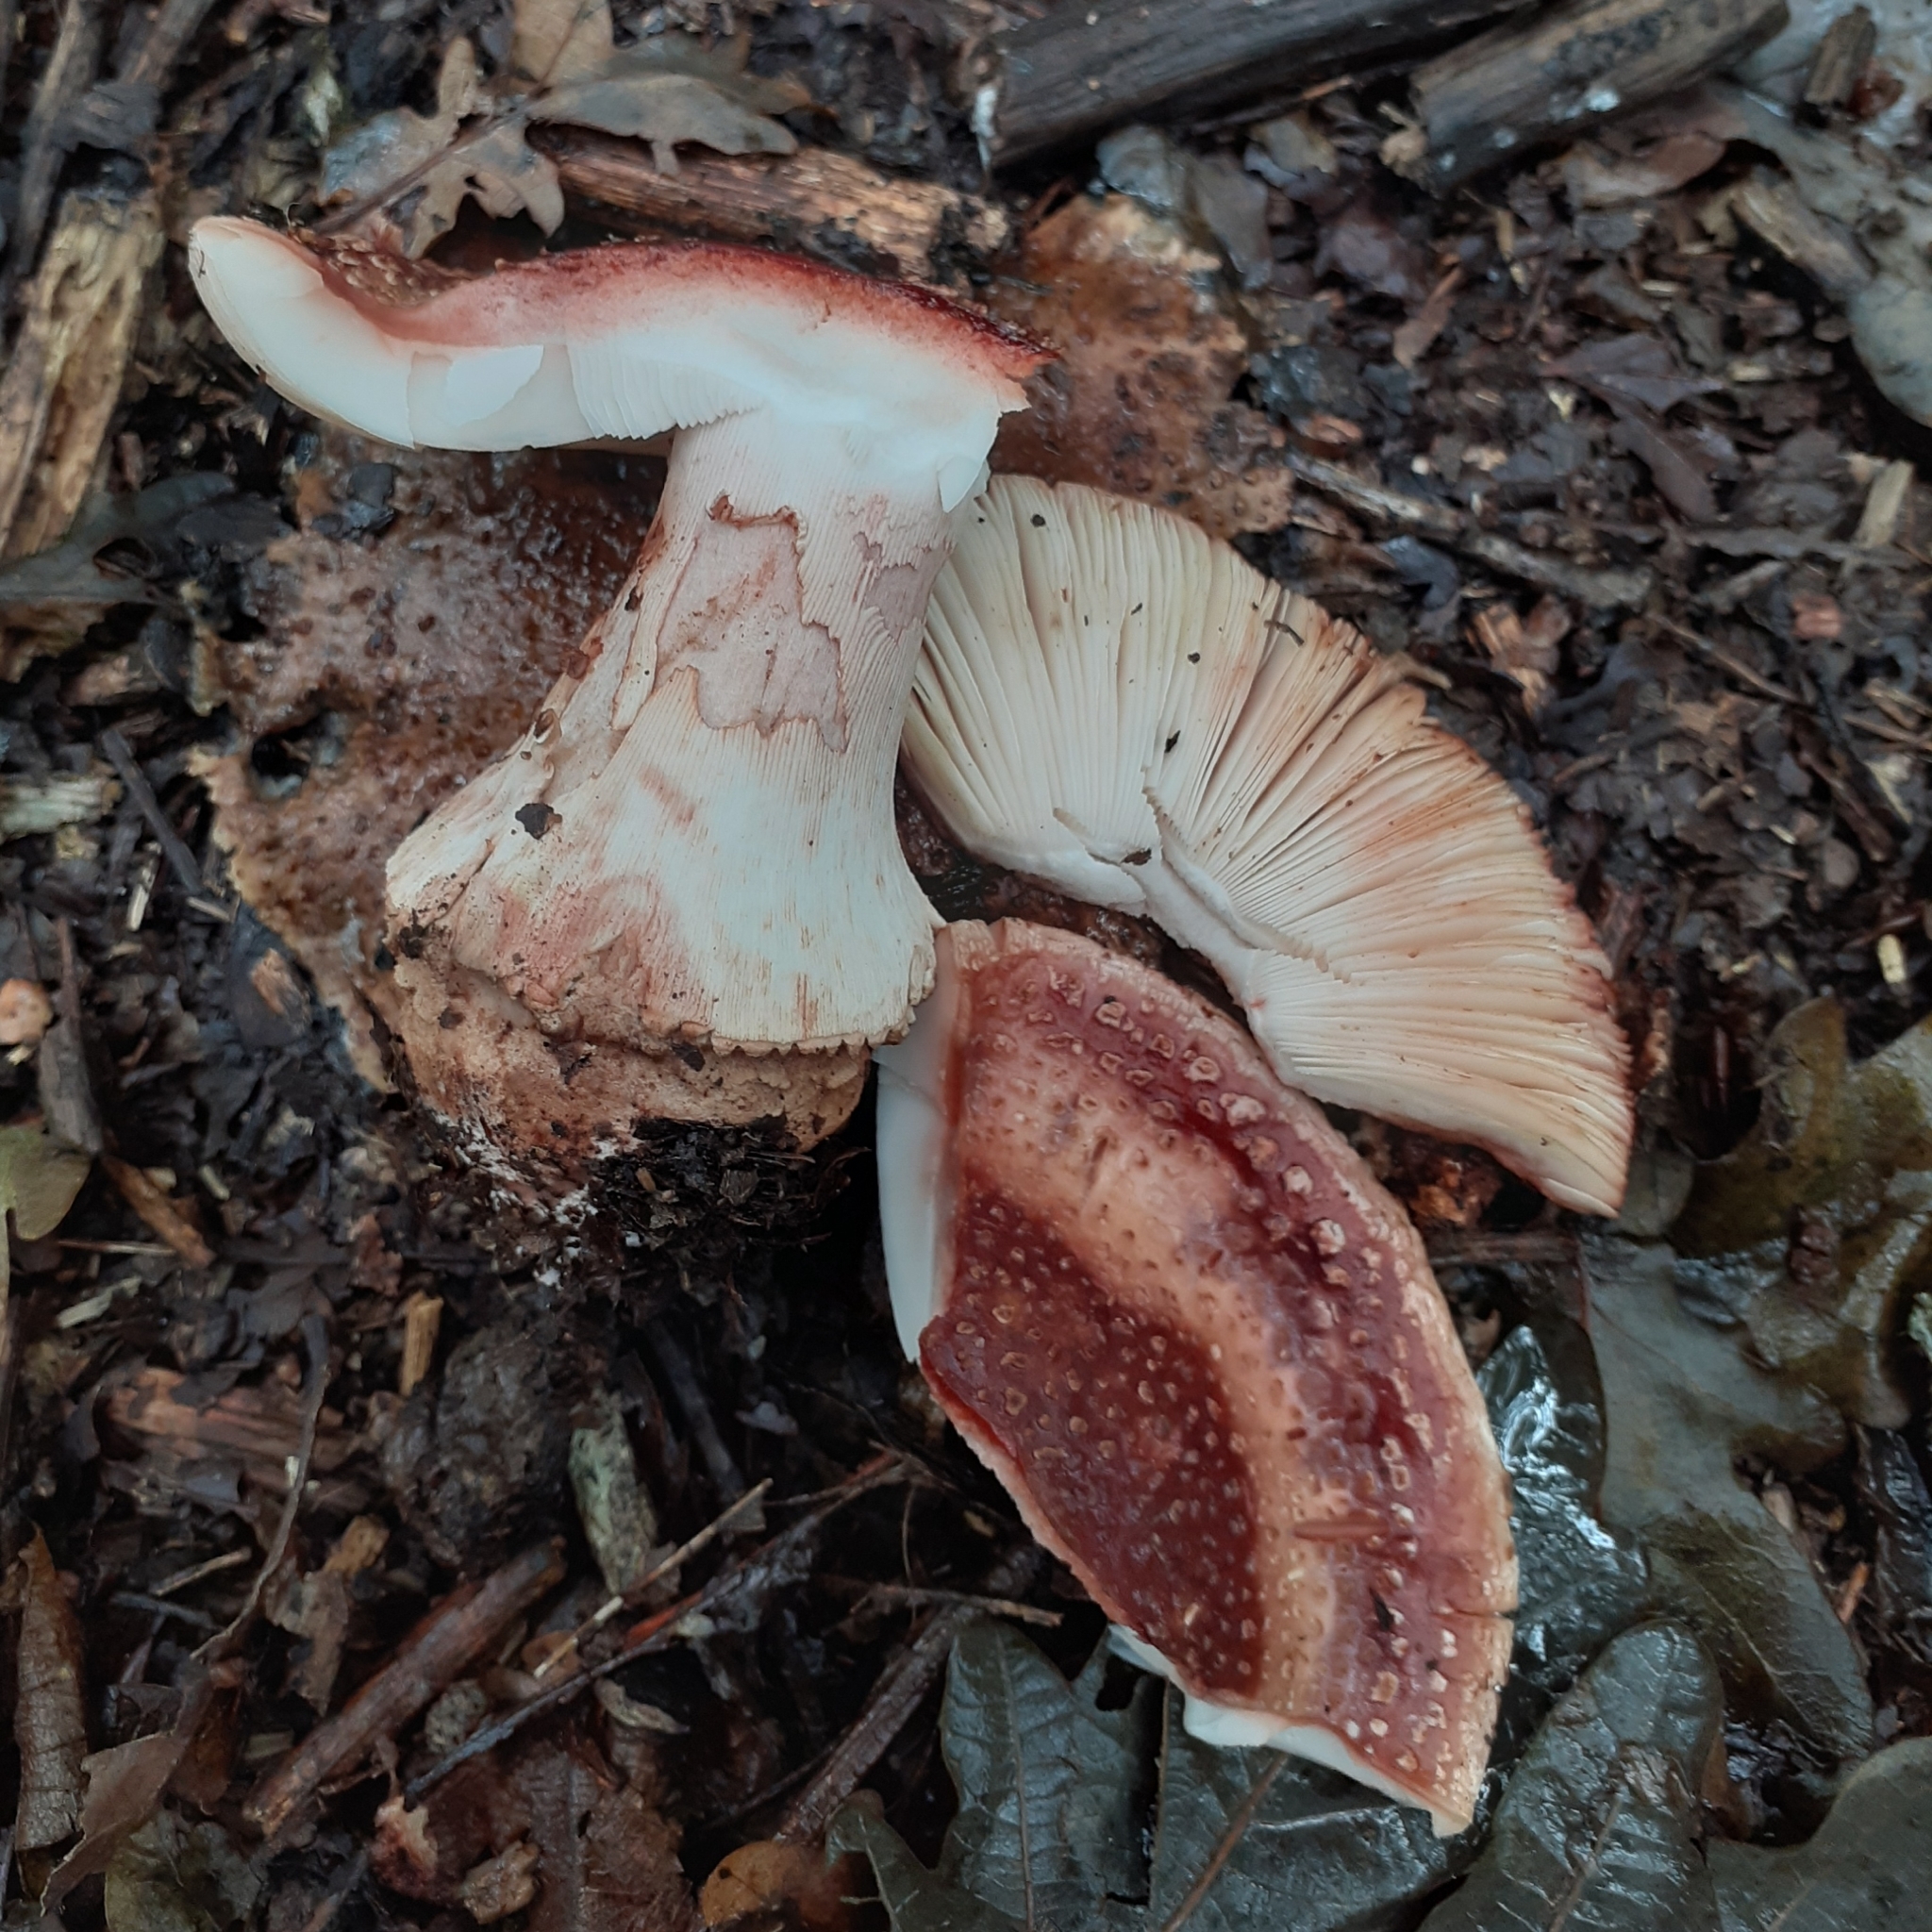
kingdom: Fungi
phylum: Basidiomycota
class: Agaricomycetes
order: Agaricales
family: Amanitaceae
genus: Amanita
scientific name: Amanita rubescens
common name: Blusher
